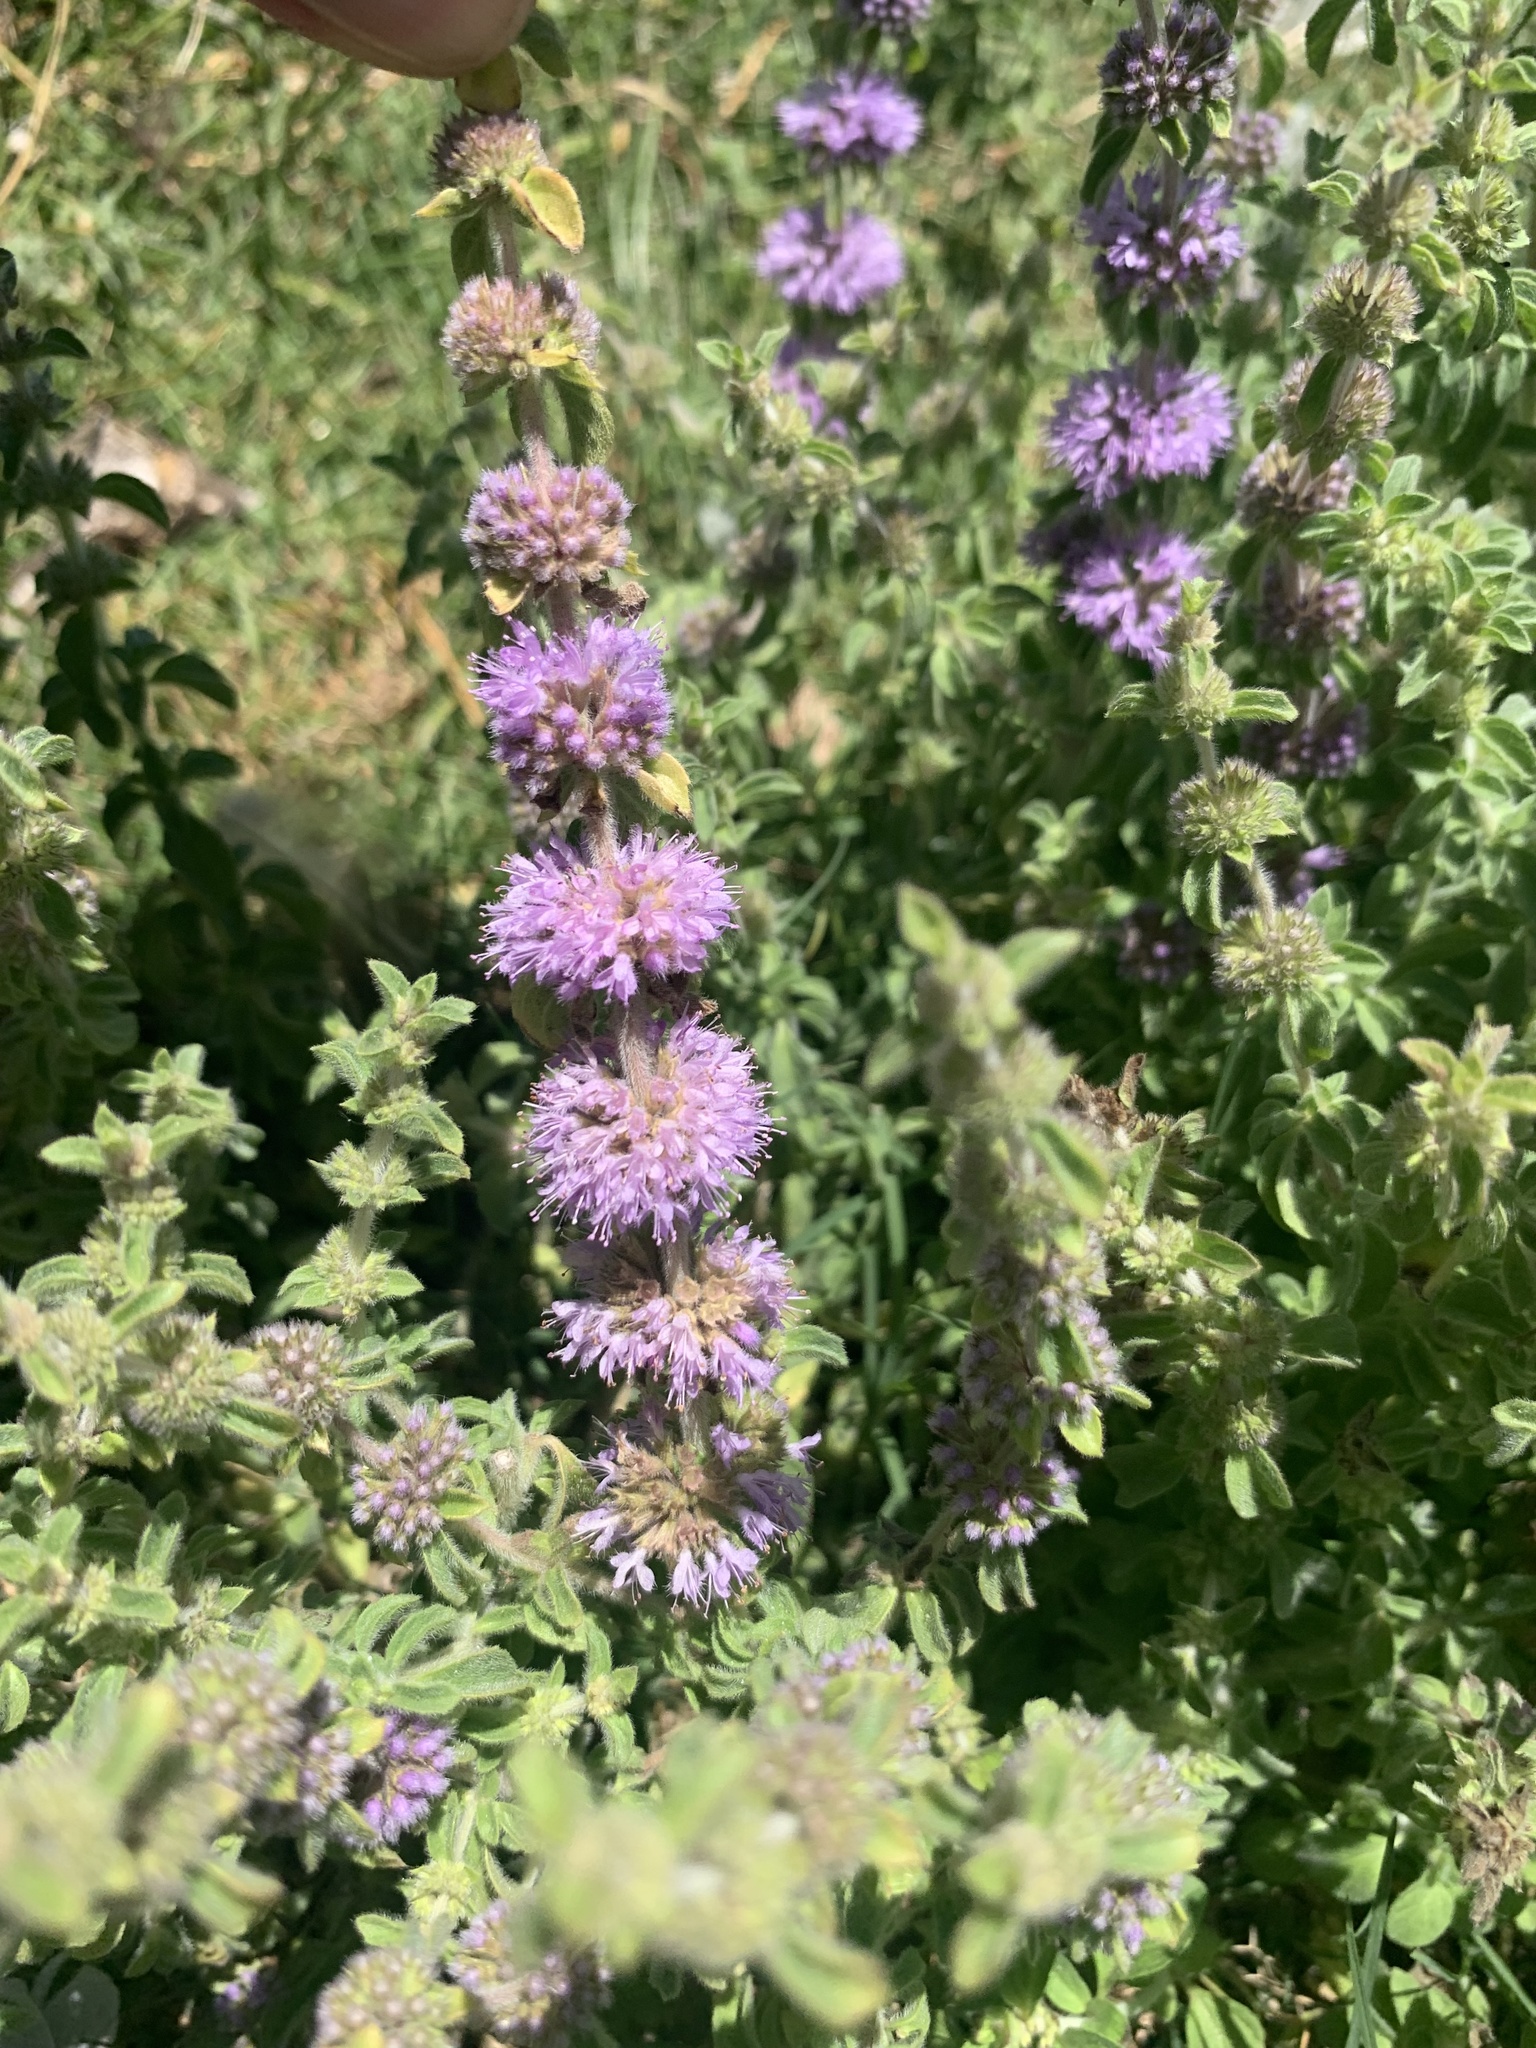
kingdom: Plantae
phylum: Tracheophyta
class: Magnoliopsida
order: Lamiales
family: Lamiaceae
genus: Mentha
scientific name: Mentha pulegium
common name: Pennyroyal
